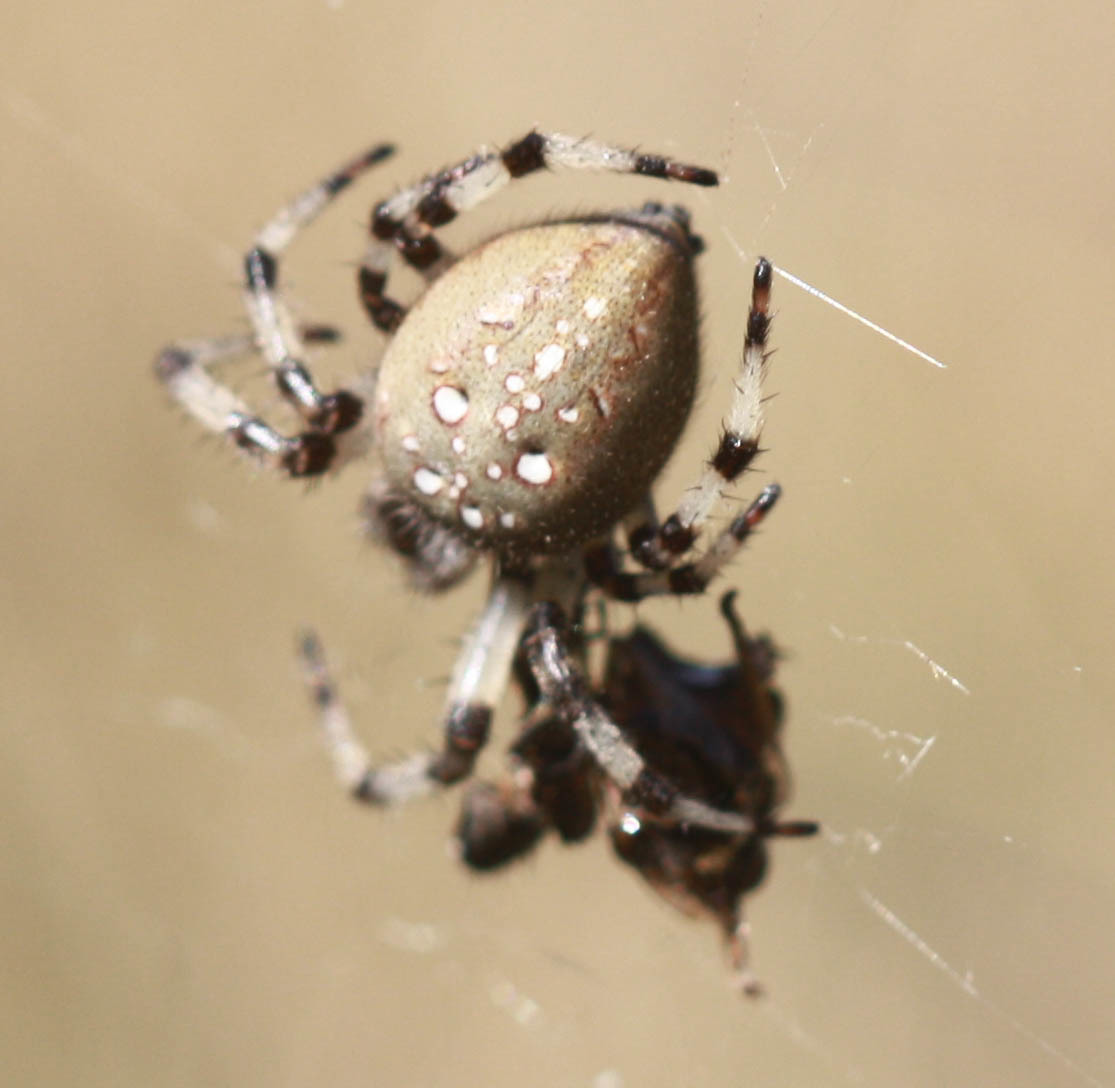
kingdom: Animalia
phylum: Arthropoda
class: Arachnida
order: Araneae
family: Araneidae
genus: Araneus
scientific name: Araneus trifolium
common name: Shamrock orbweaver
